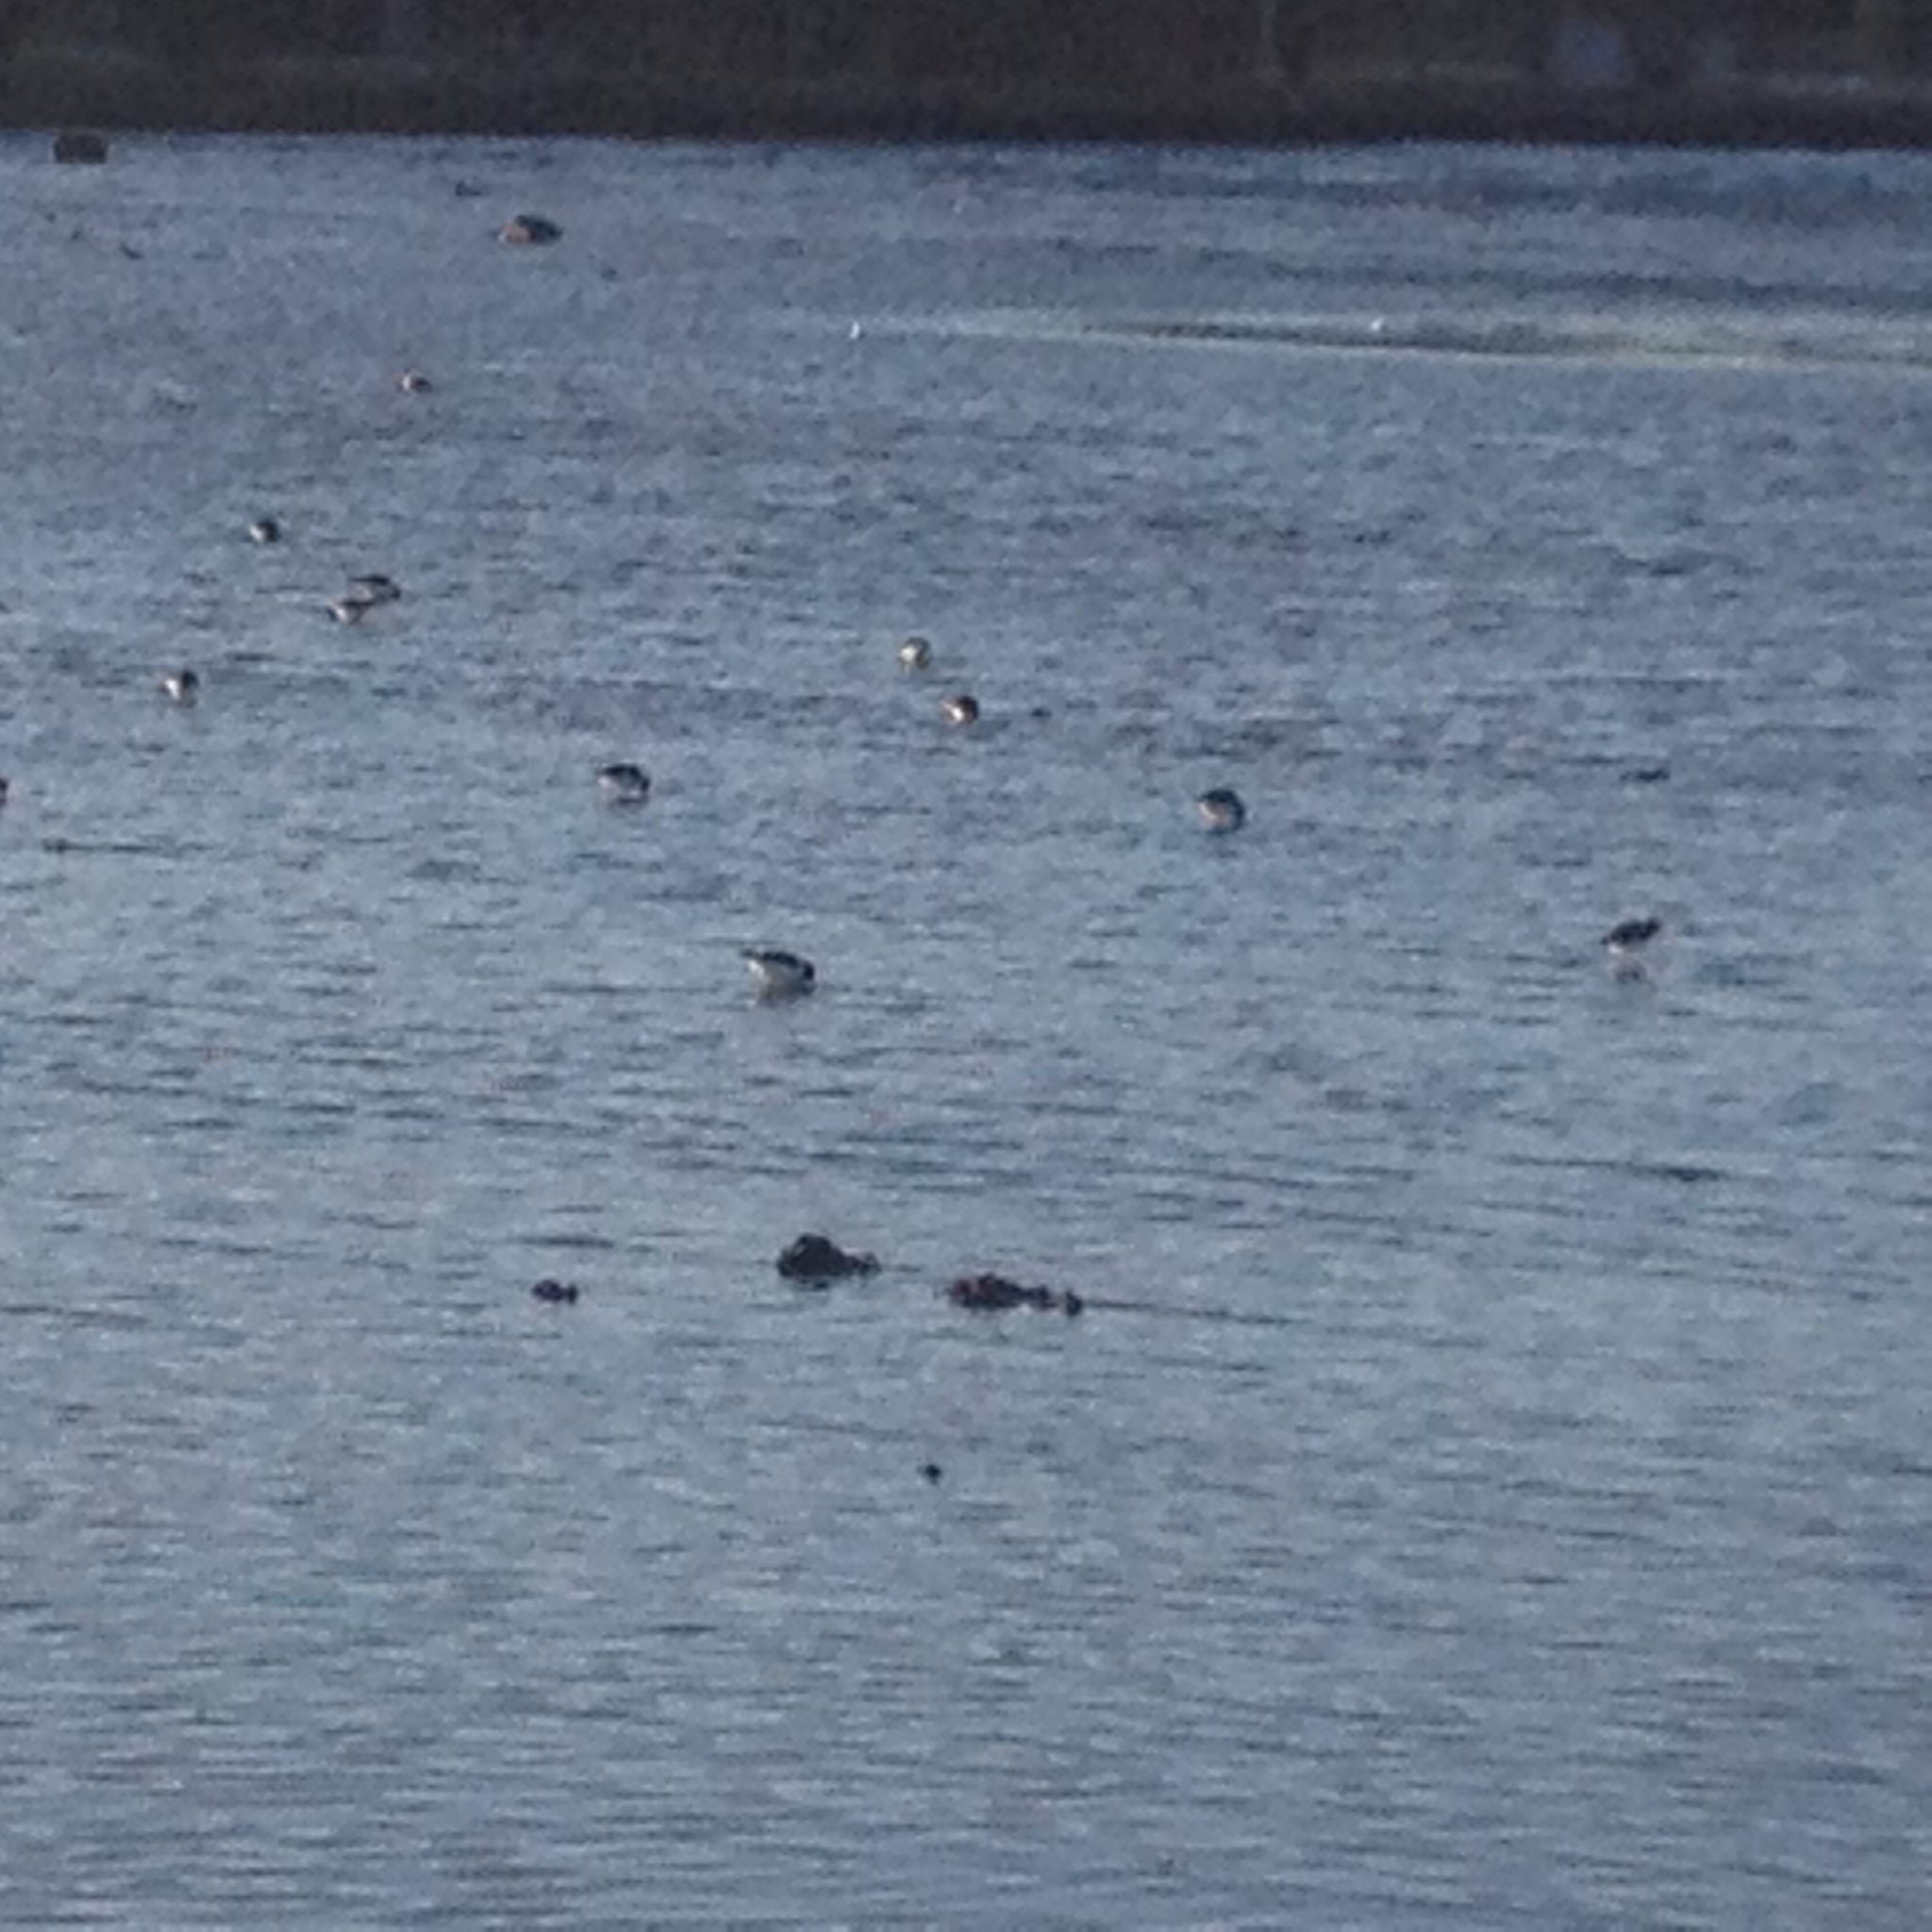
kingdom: Animalia
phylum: Chordata
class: Aves
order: Charadriiformes
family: Haematopodidae
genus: Haematopus
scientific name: Haematopus ostralegus
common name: Eurasian oystercatcher
